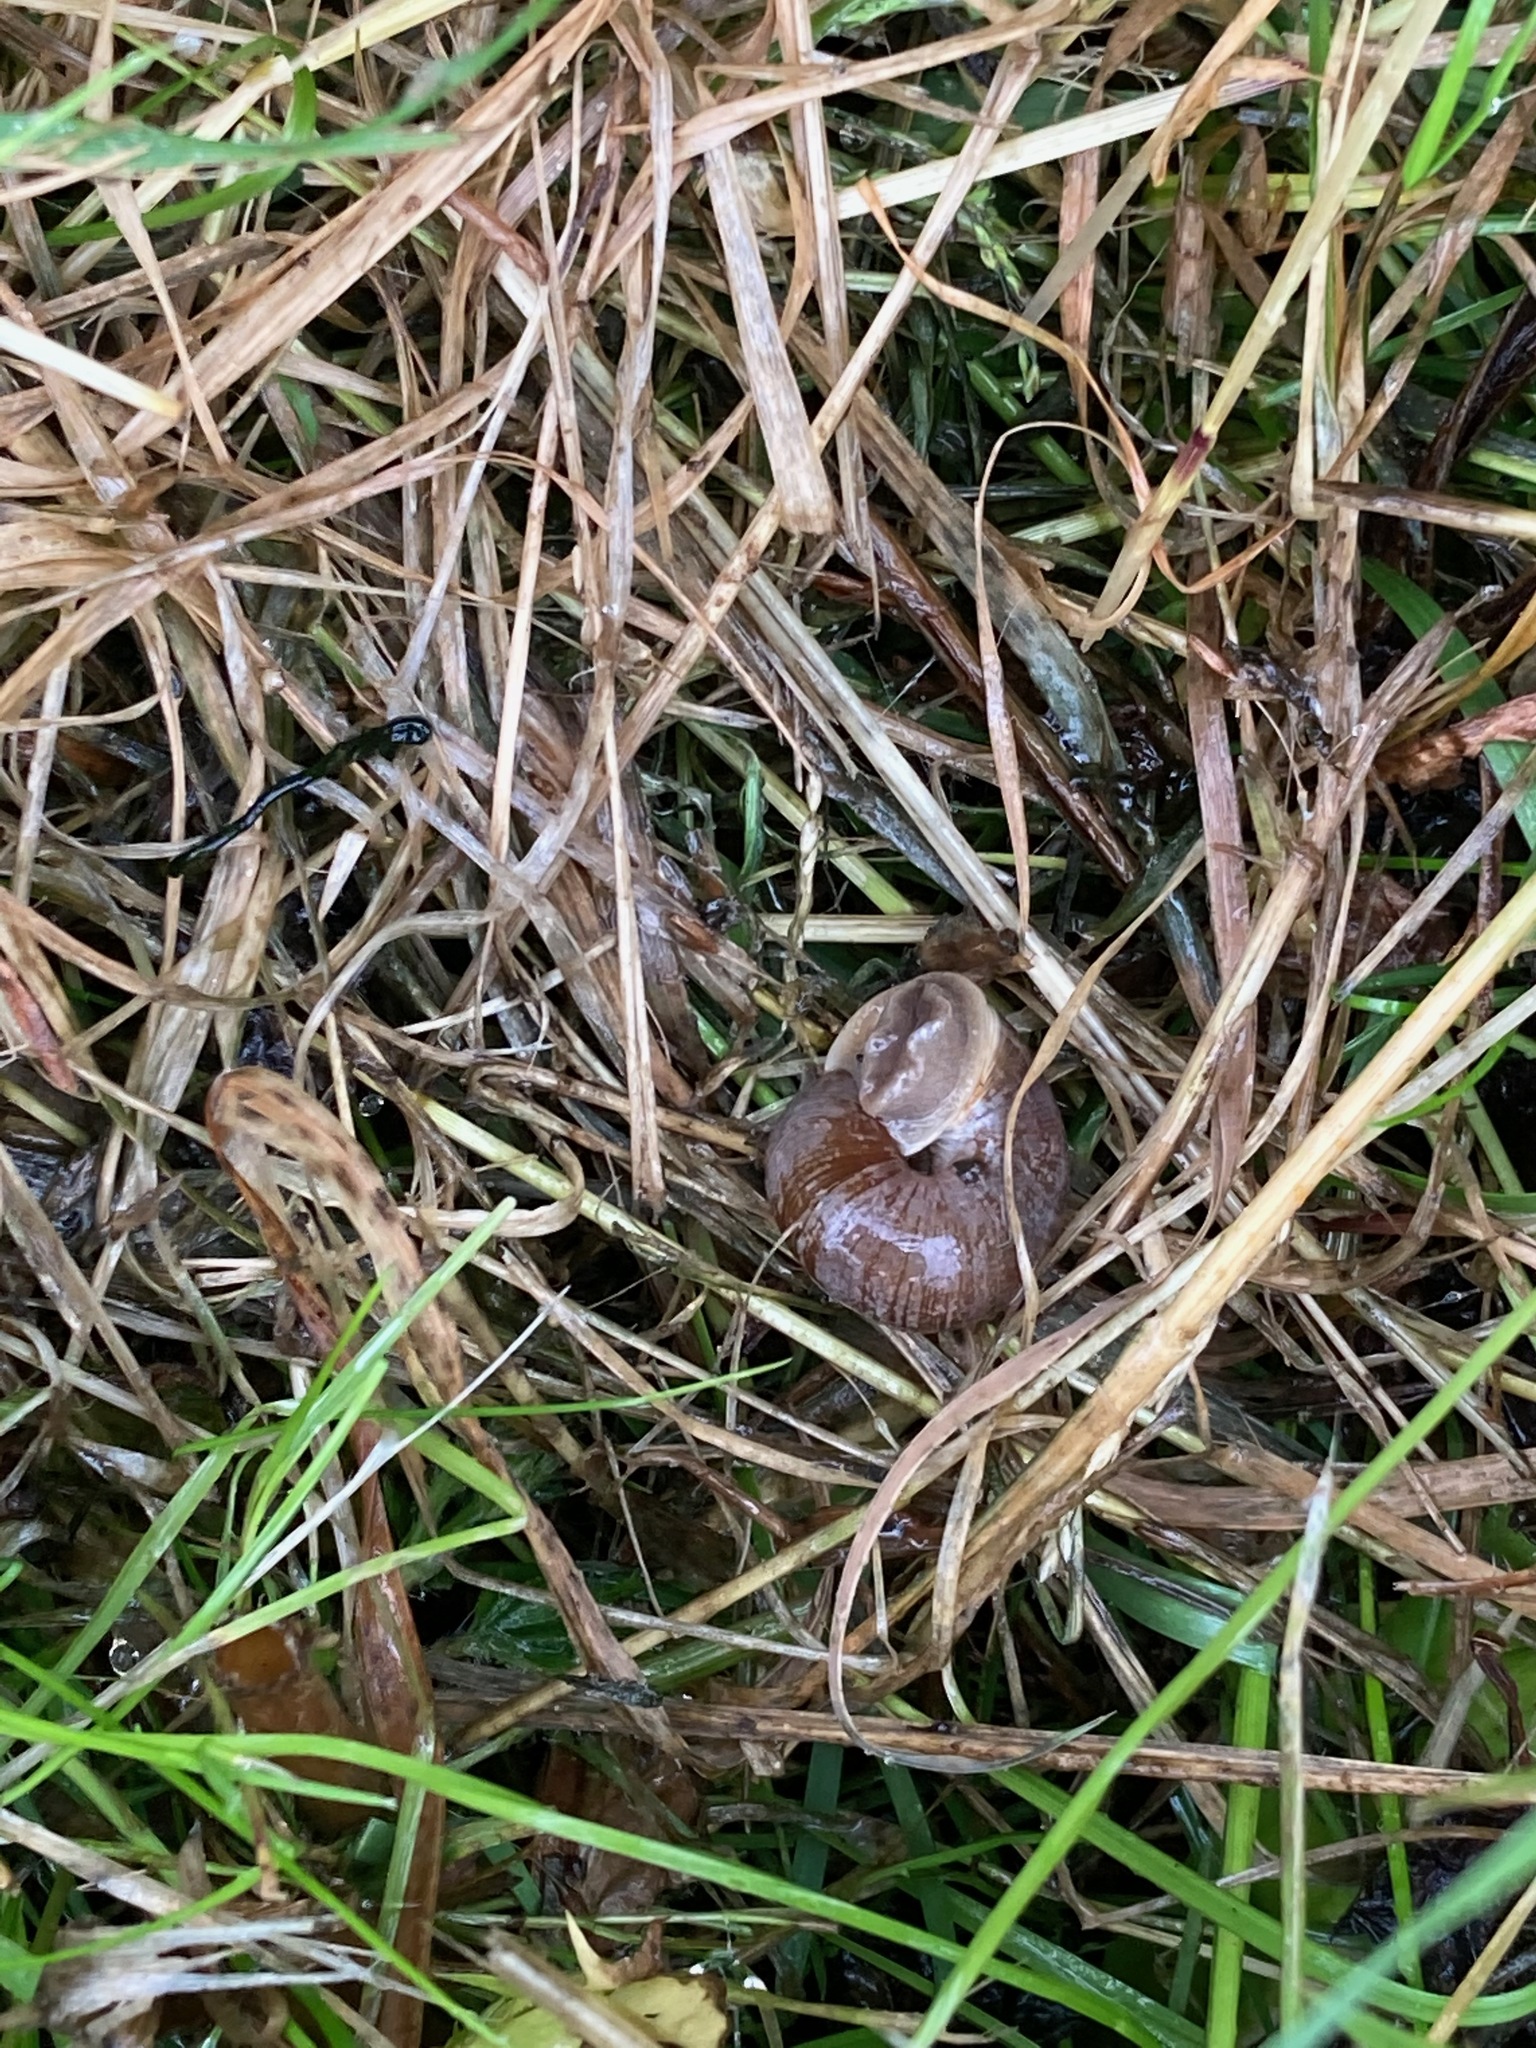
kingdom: Animalia
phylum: Mollusca
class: Gastropoda
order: Stylommatophora
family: Polygyridae
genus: Allogona
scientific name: Allogona townsendiana
